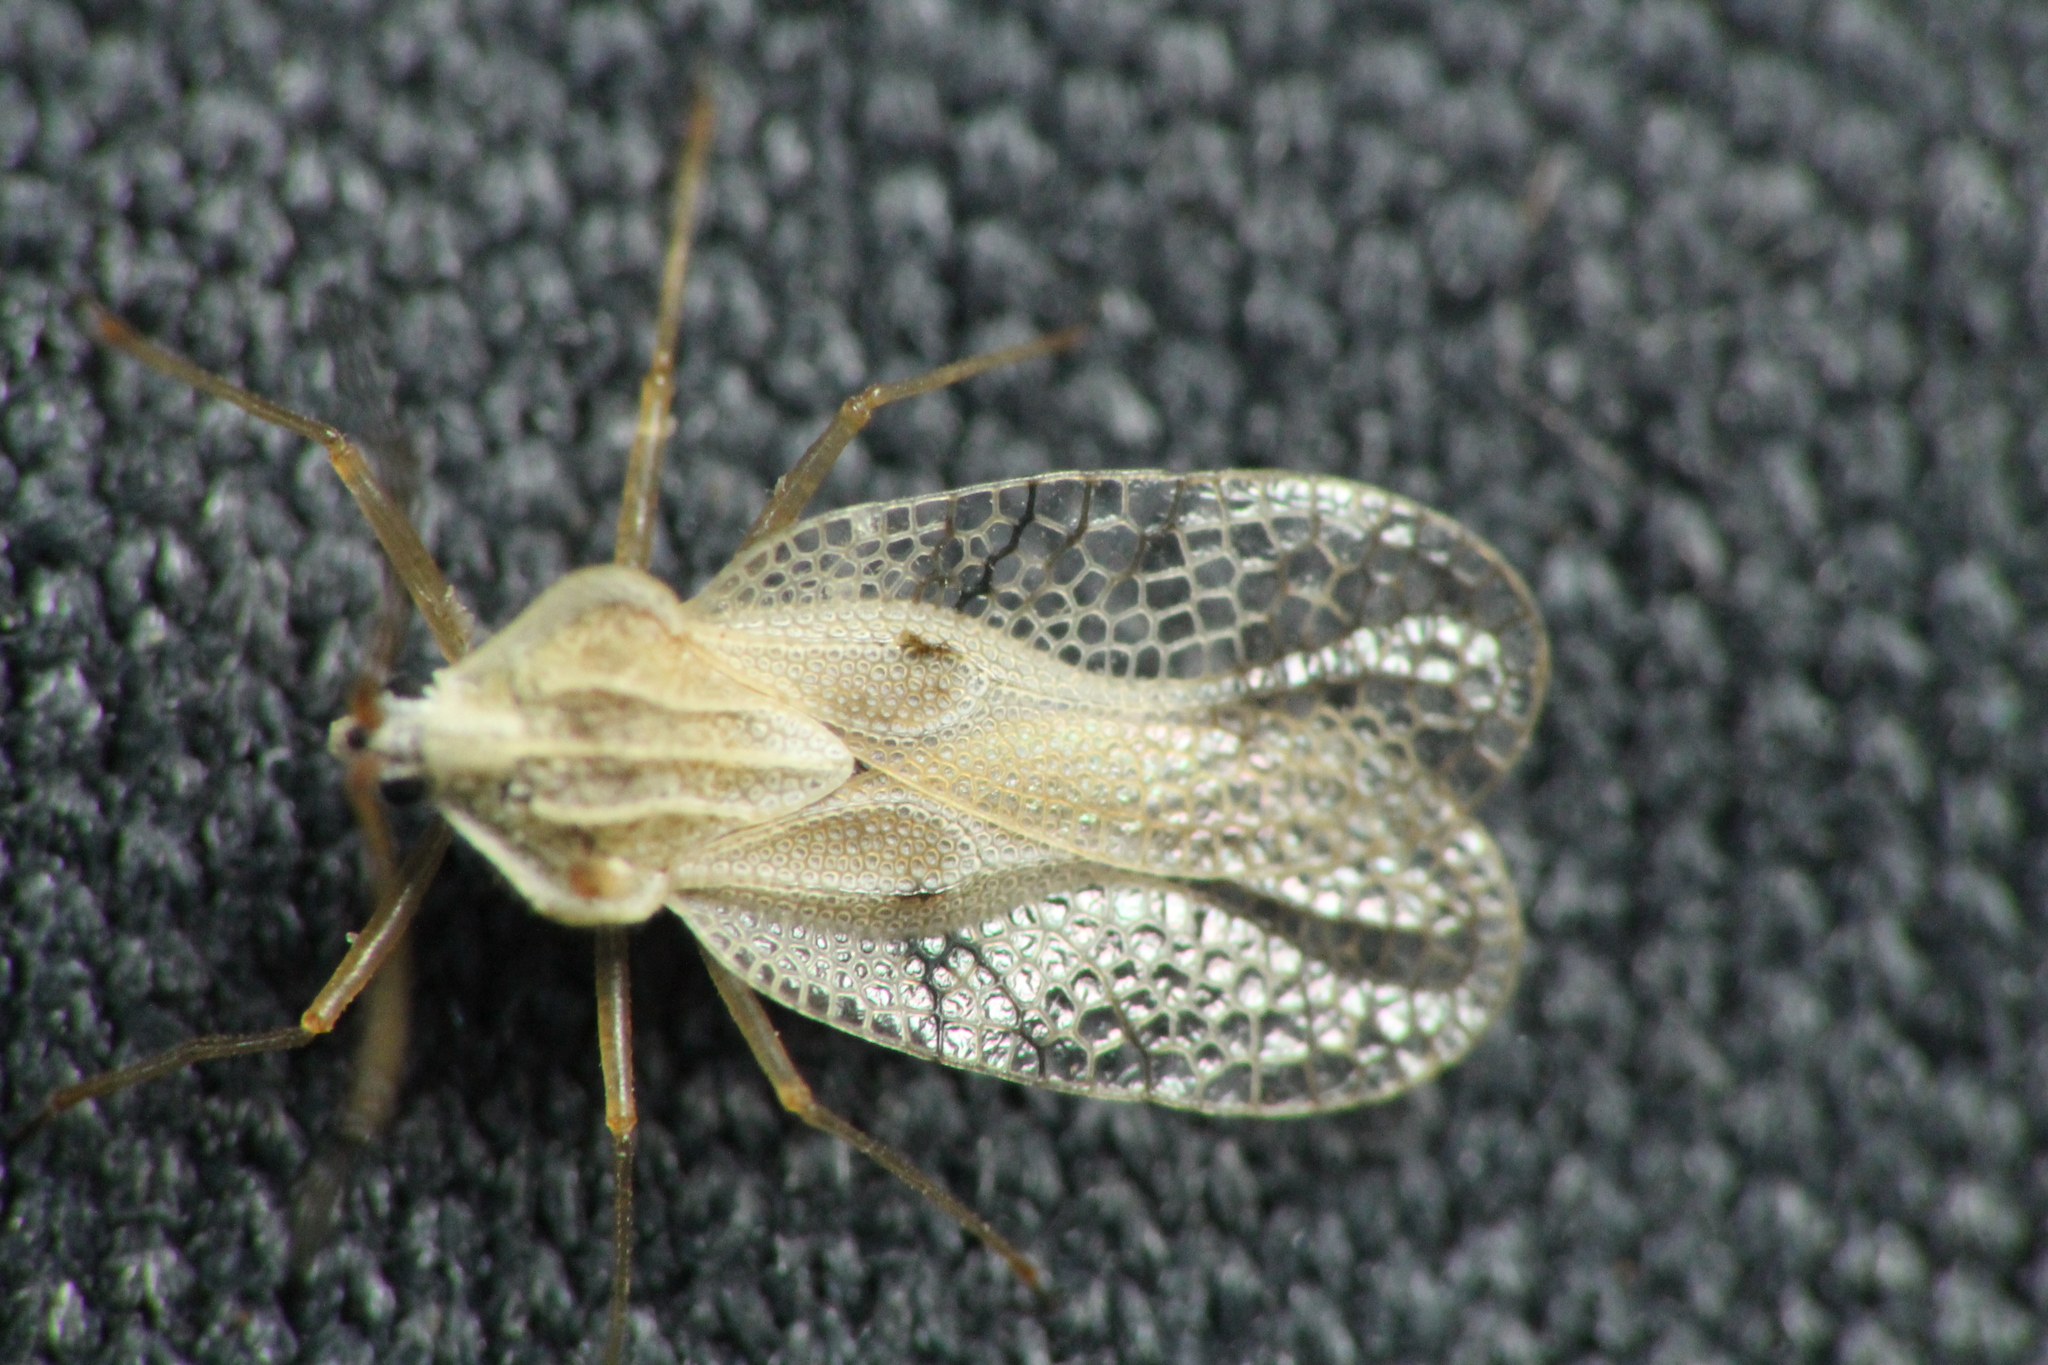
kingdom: Animalia
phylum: Arthropoda
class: Insecta
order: Hemiptera
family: Tingidae
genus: Gargaphia
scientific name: Gargaphia decoris
